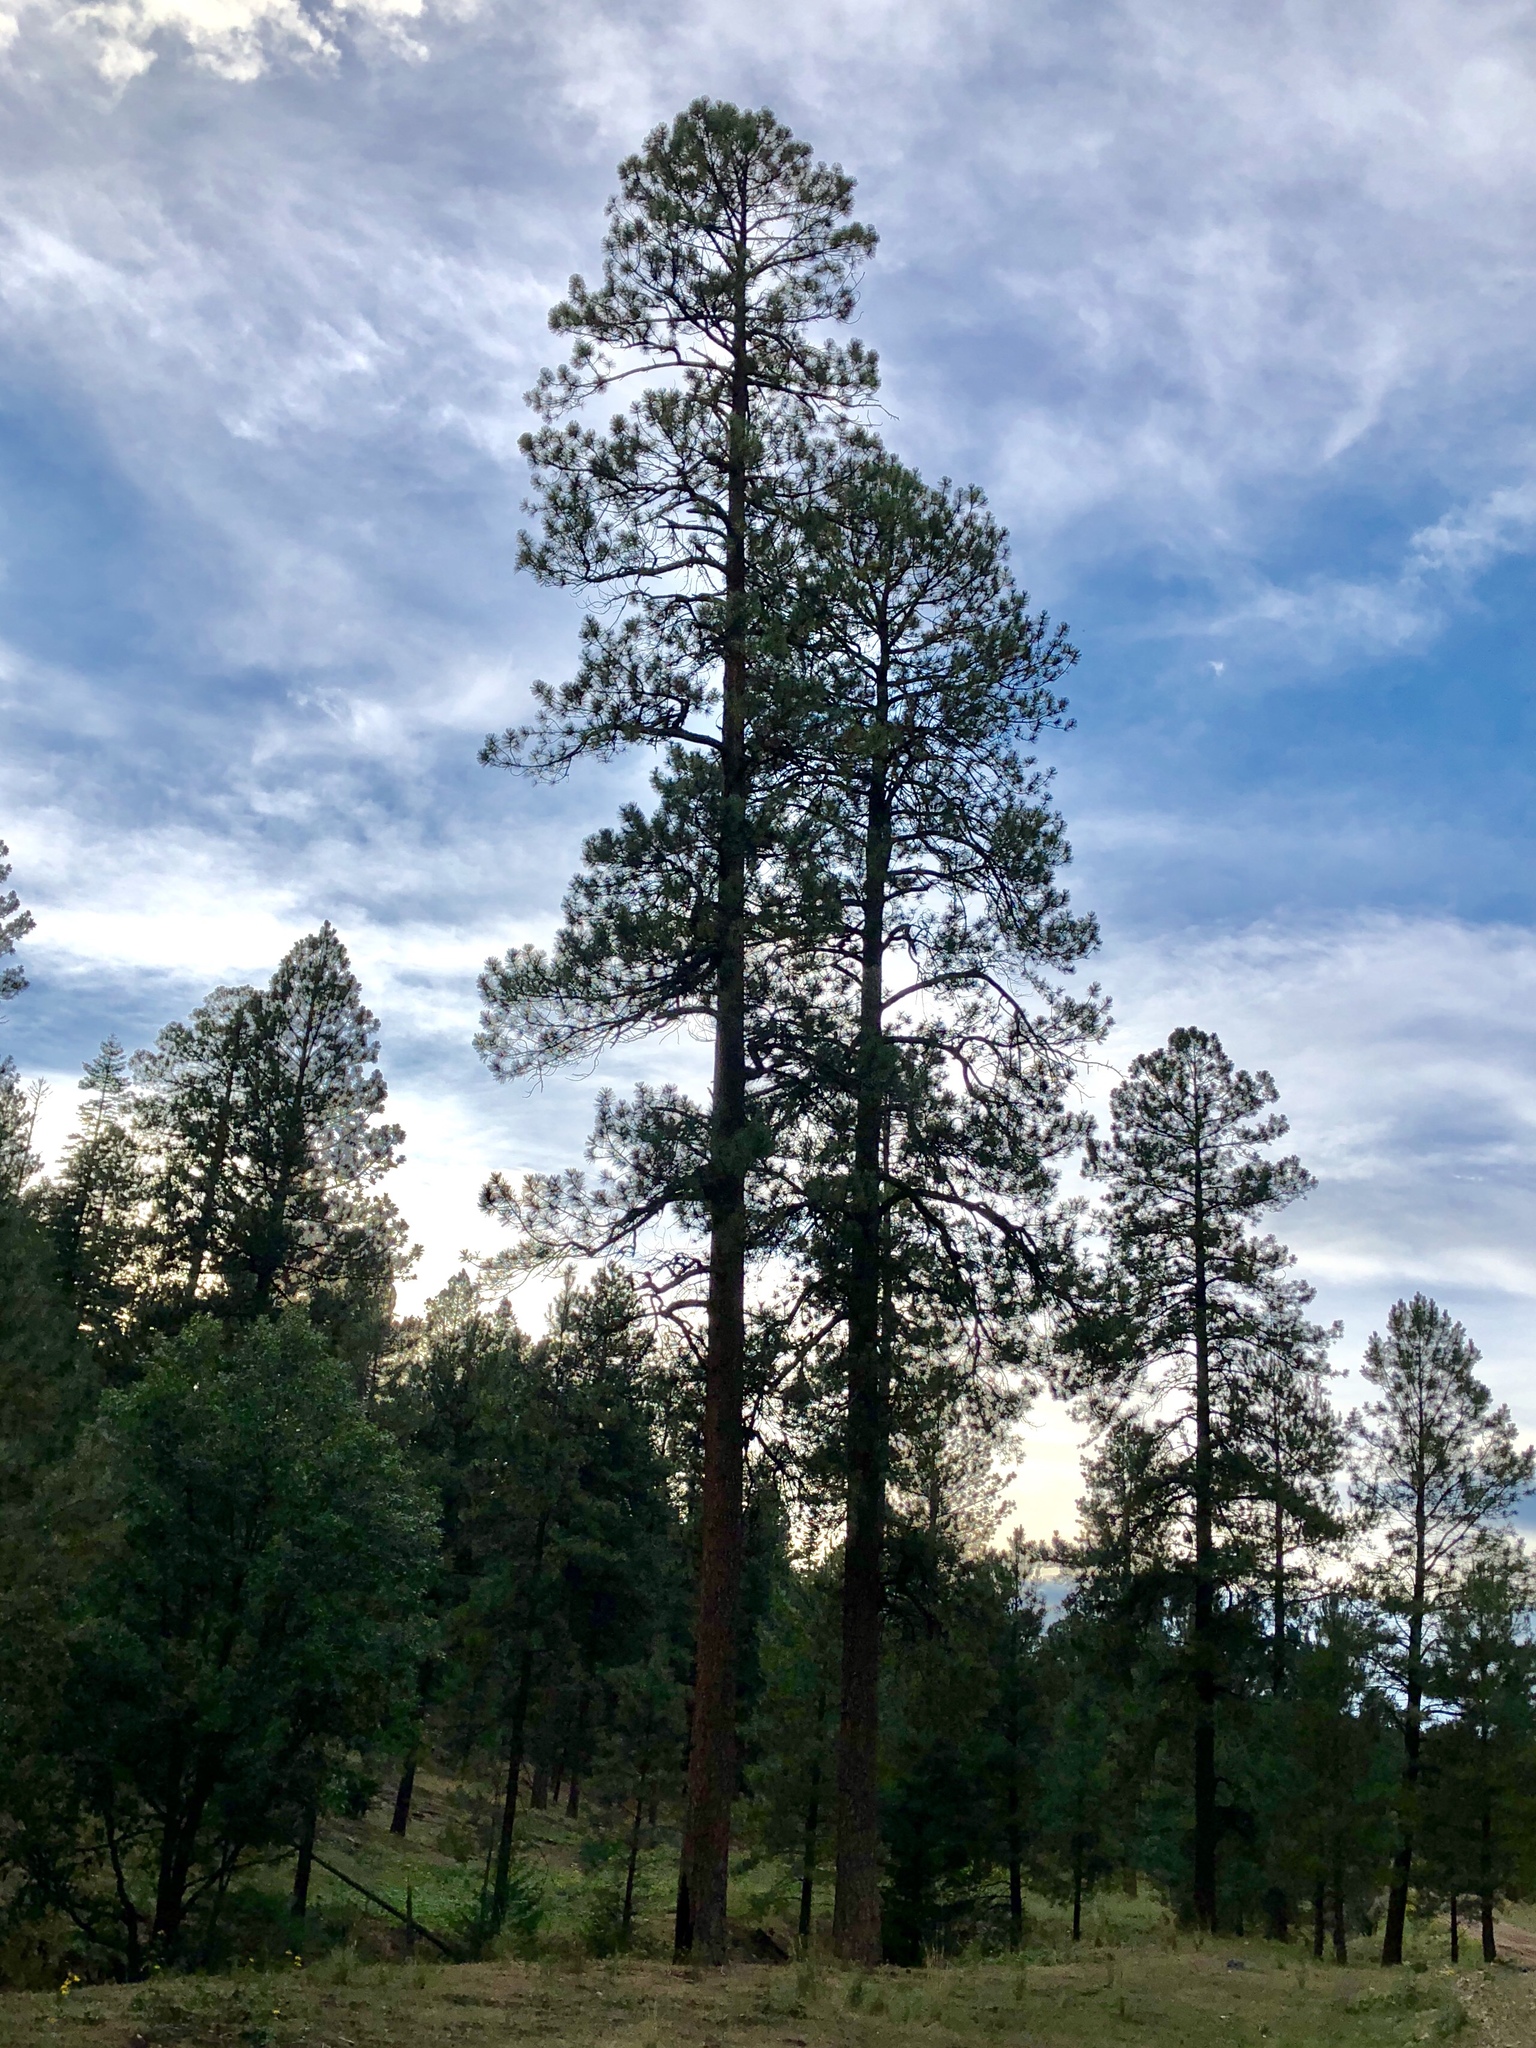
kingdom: Plantae
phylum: Tracheophyta
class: Pinopsida
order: Pinales
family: Pinaceae
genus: Pinus
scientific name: Pinus ponderosa
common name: Western yellow-pine
